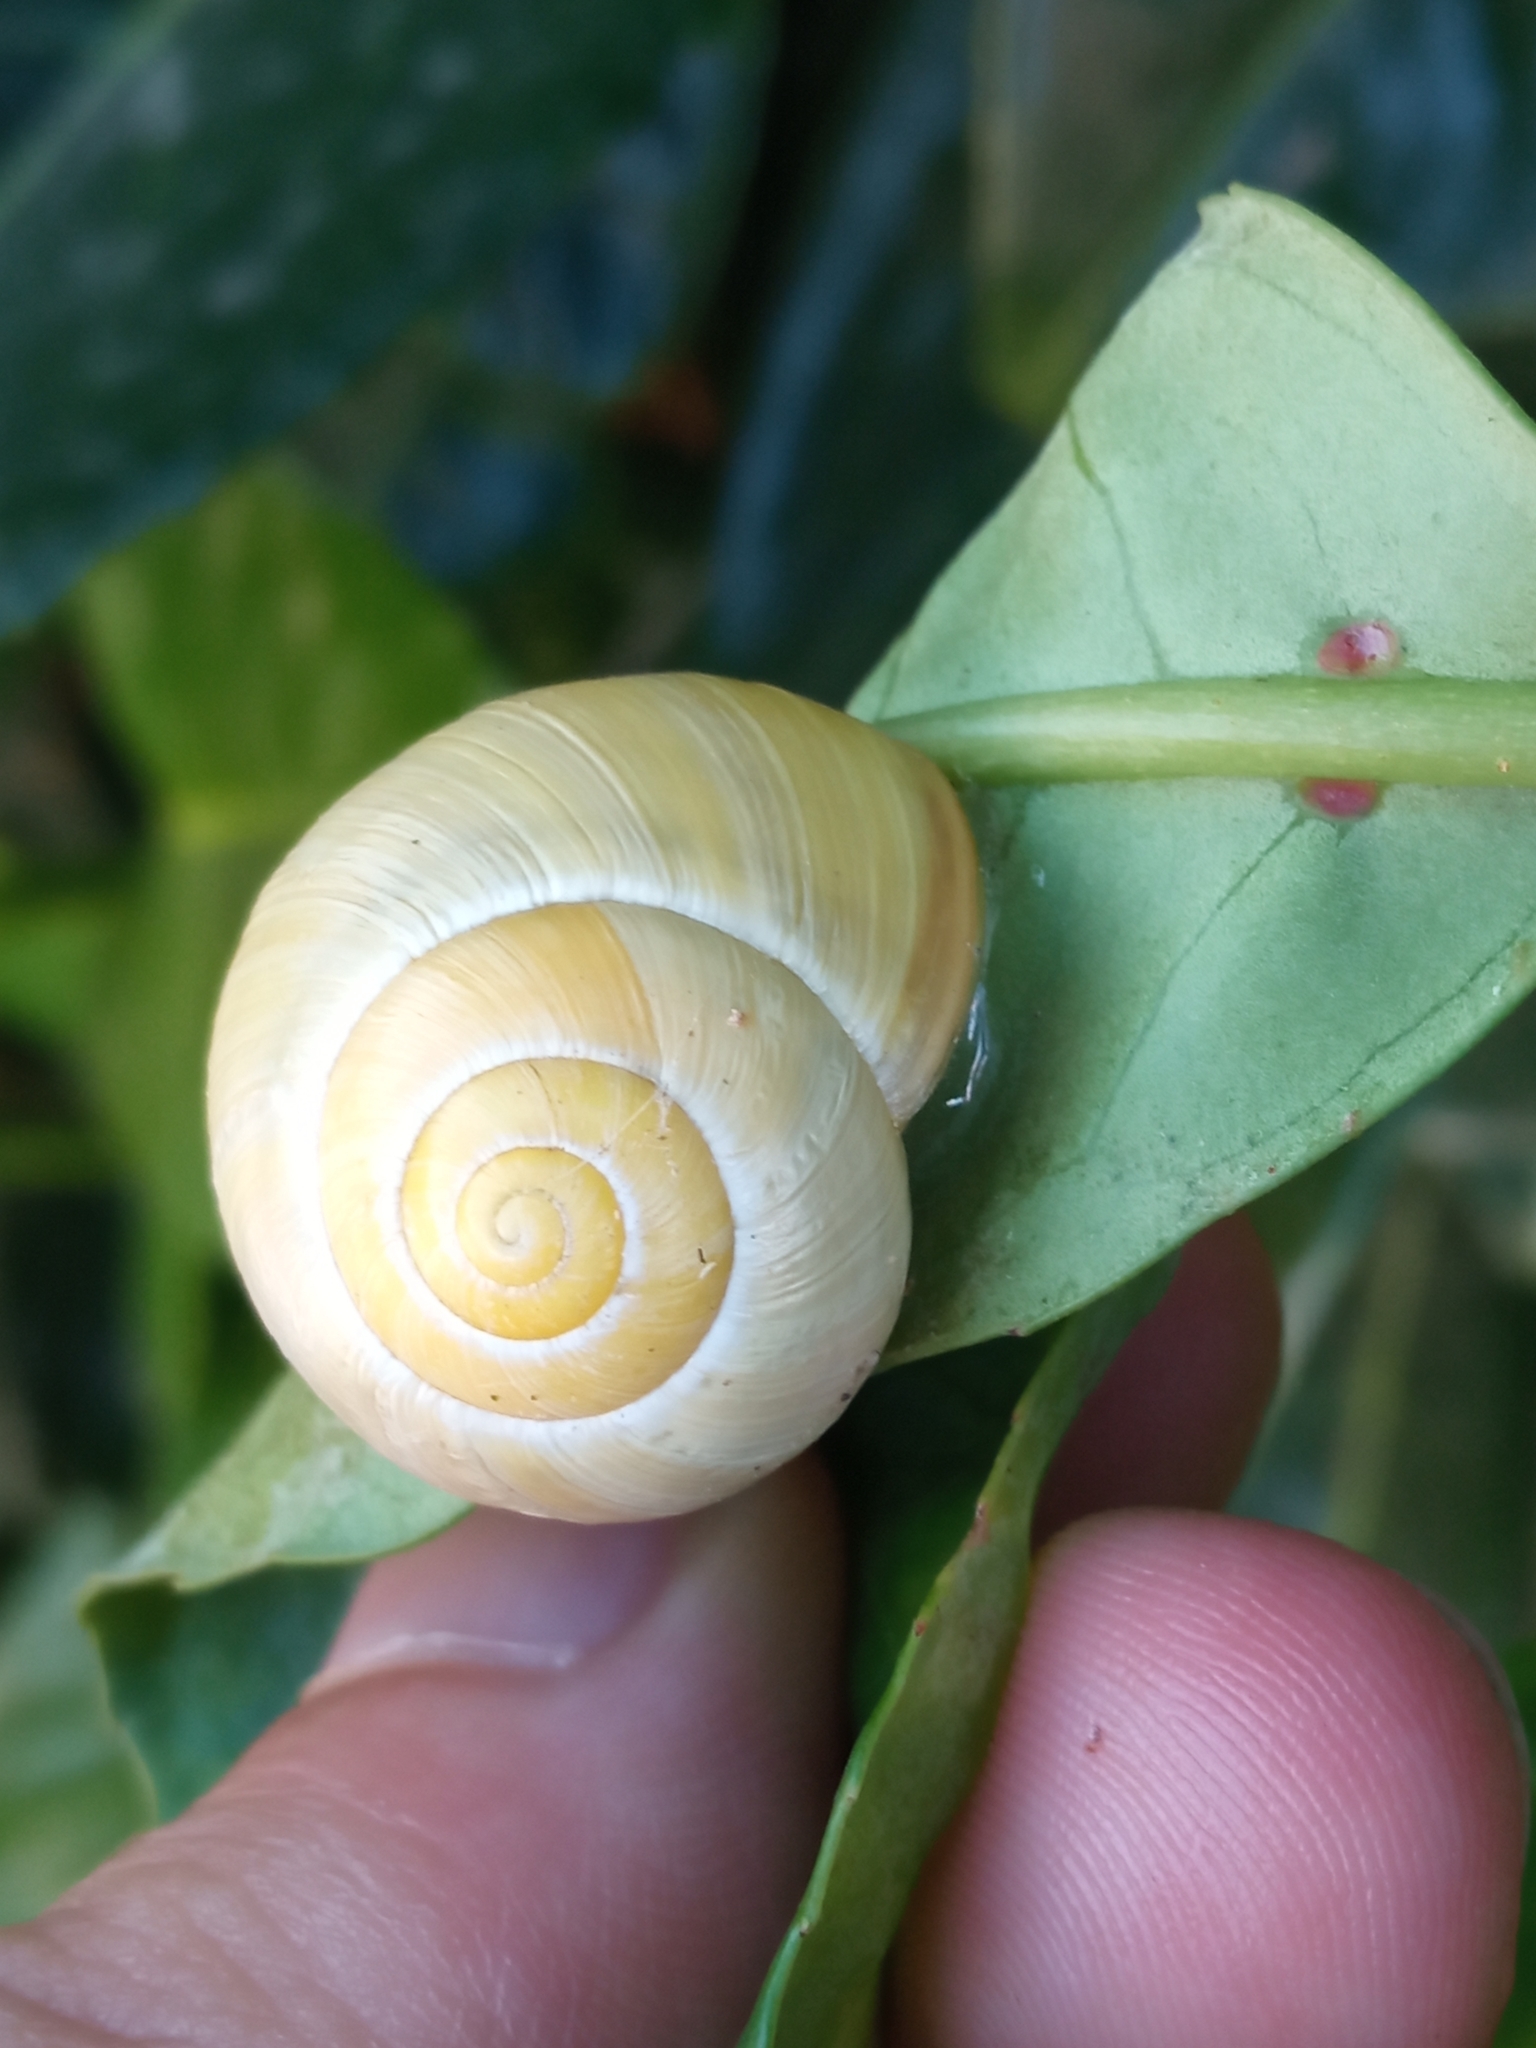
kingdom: Animalia
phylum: Mollusca
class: Gastropoda
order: Stylommatophora
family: Helicidae
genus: Cepaea
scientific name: Cepaea
